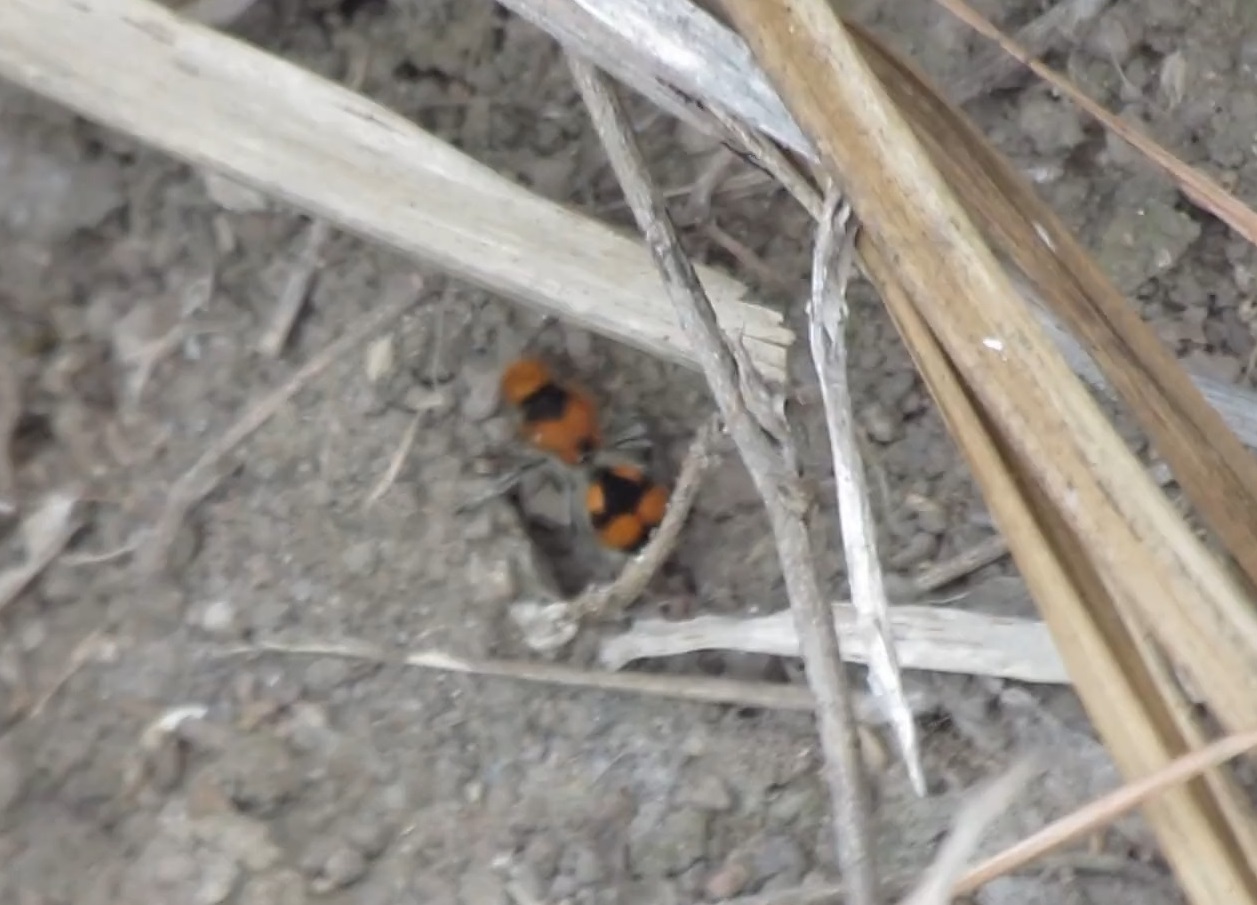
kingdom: Animalia
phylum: Arthropoda
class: Insecta
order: Hymenoptera
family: Mutillidae
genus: Dasymutilla
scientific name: Dasymutilla
